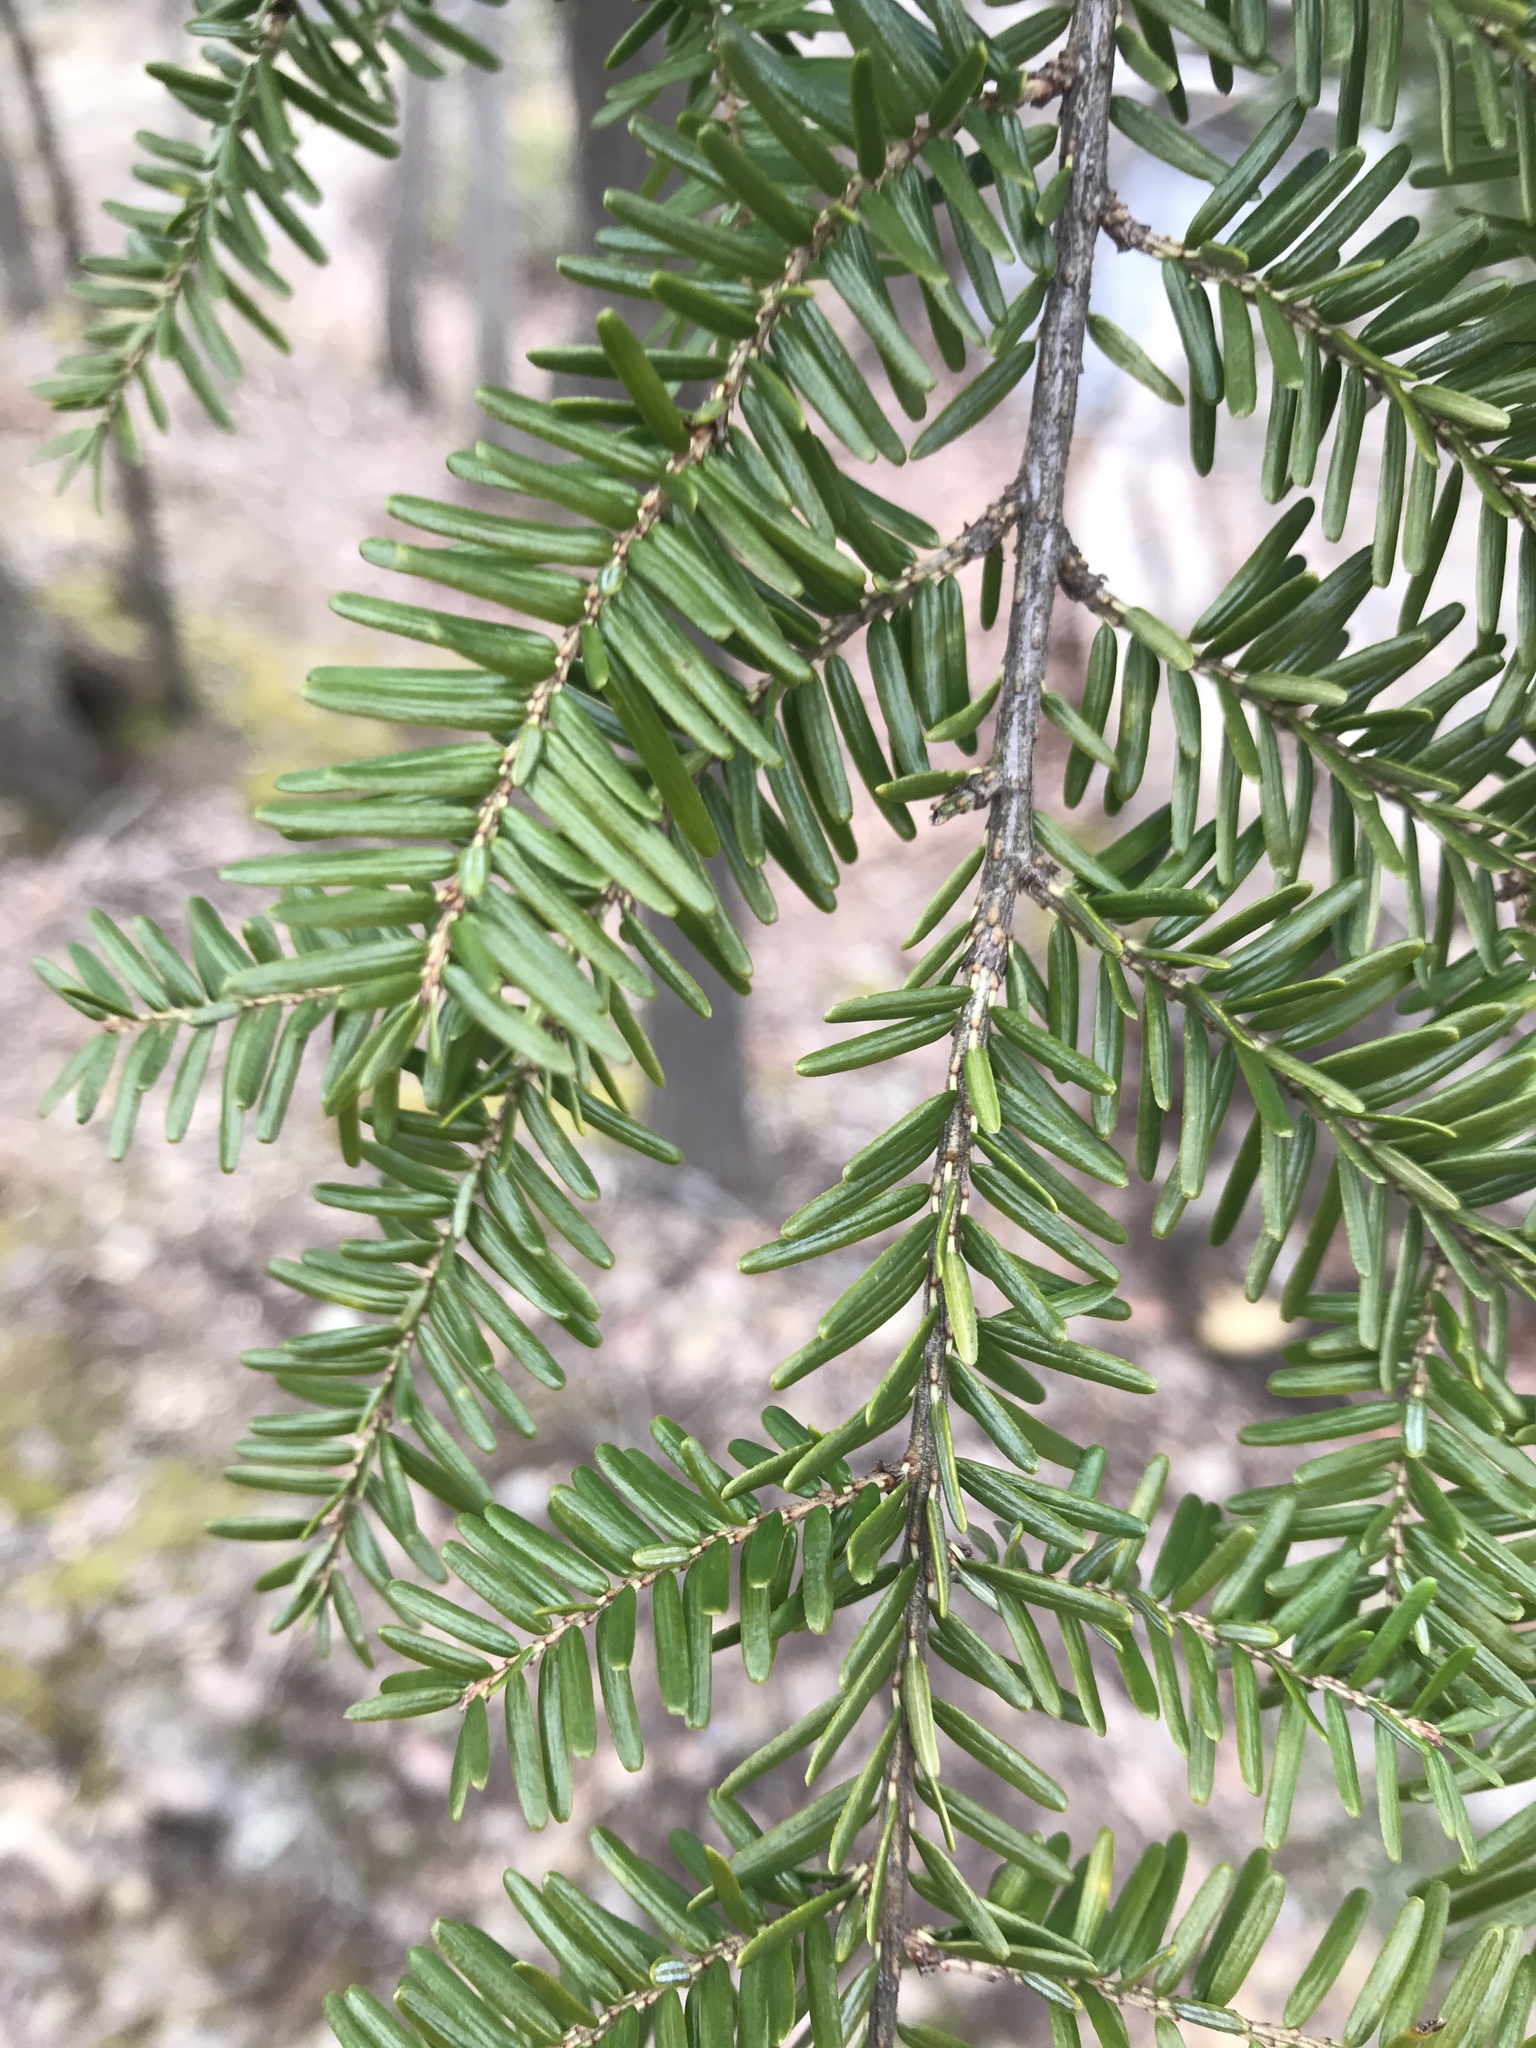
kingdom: Plantae
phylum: Tracheophyta
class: Pinopsida
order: Pinales
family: Pinaceae
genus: Tsuga
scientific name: Tsuga canadensis
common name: Eastern hemlock
